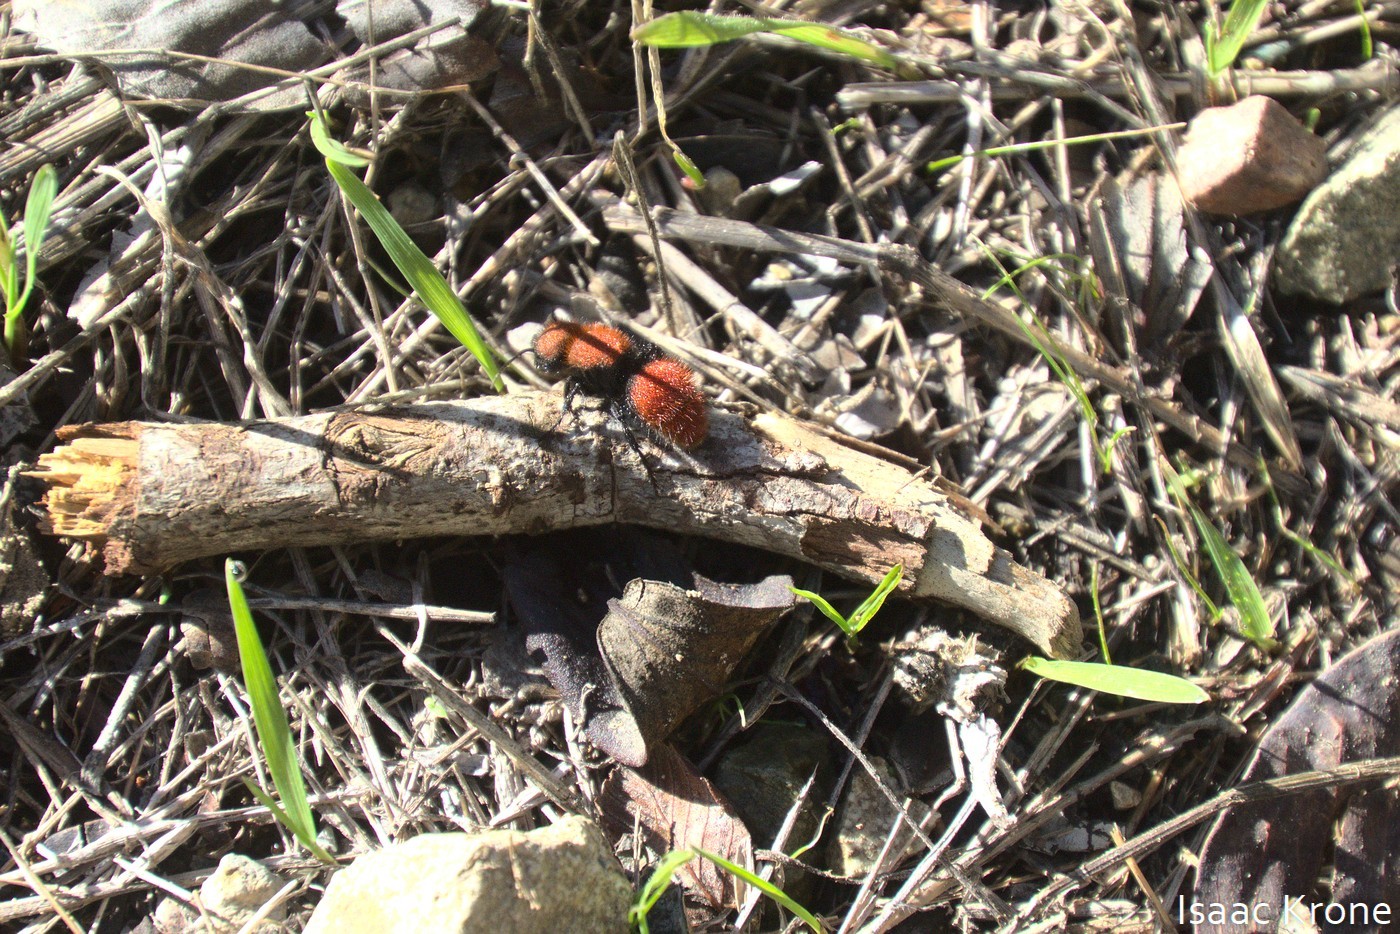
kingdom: Animalia
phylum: Arthropoda
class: Insecta
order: Hymenoptera
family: Mutillidae
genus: Dasymutilla
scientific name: Dasymutilla
